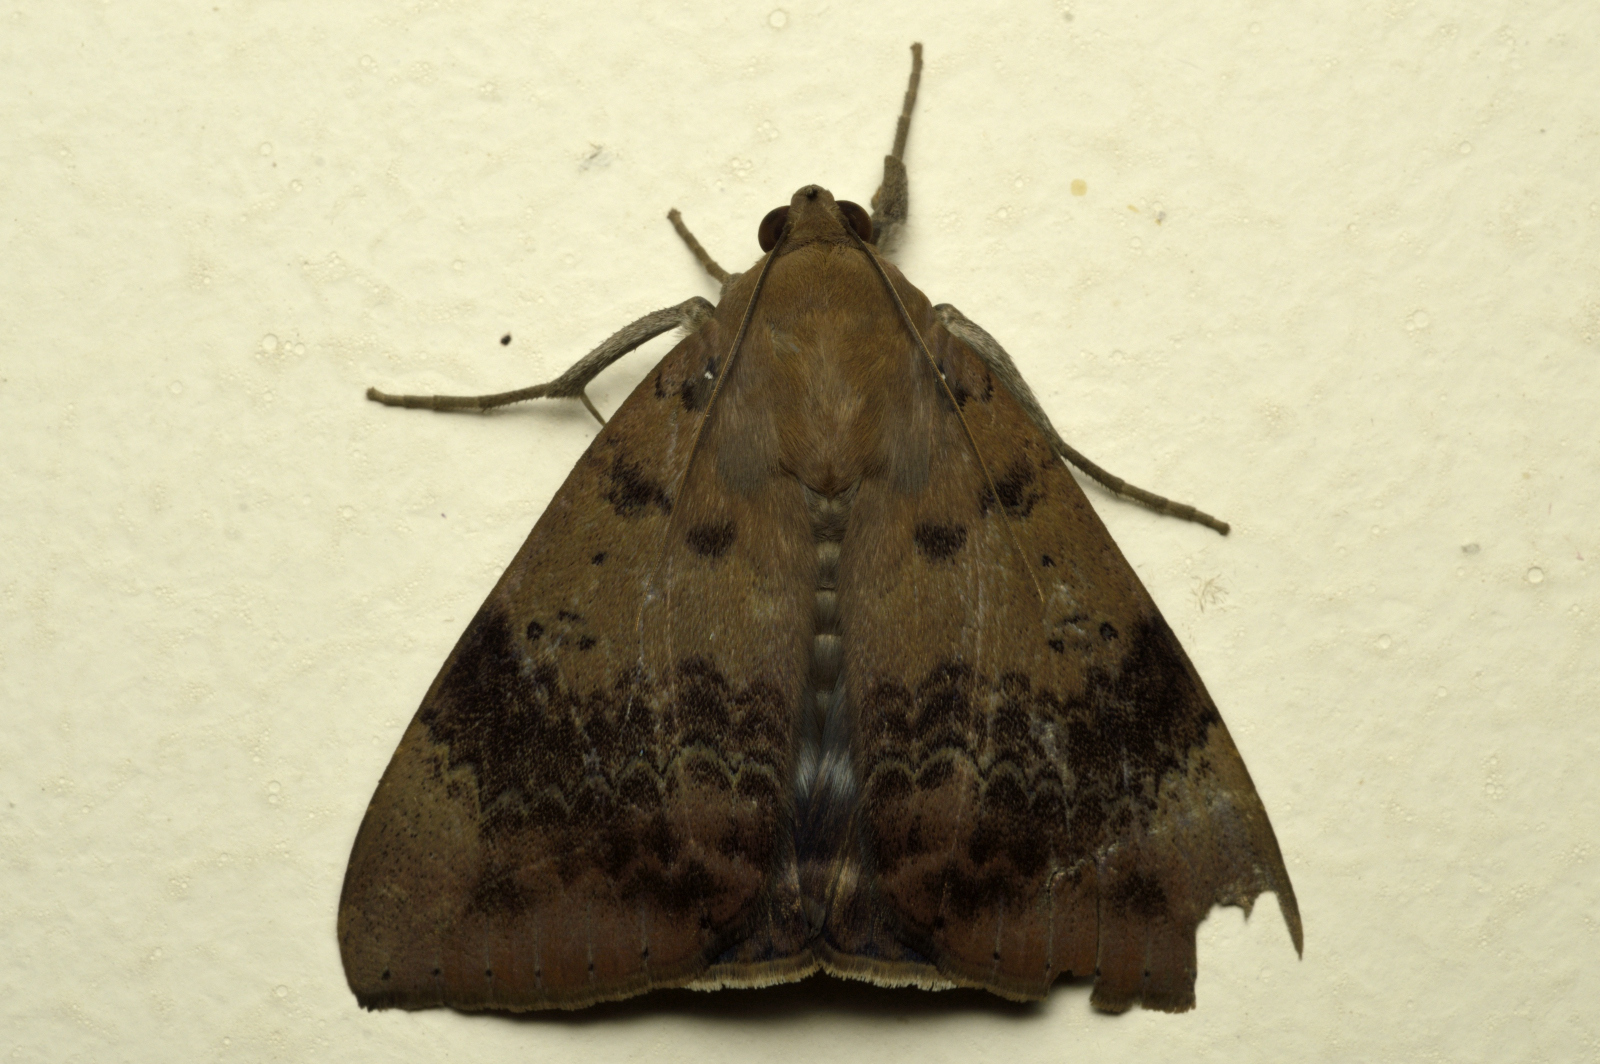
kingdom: Animalia
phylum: Arthropoda
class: Insecta
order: Lepidoptera
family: Erebidae
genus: Achaea
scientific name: Achaea serva
